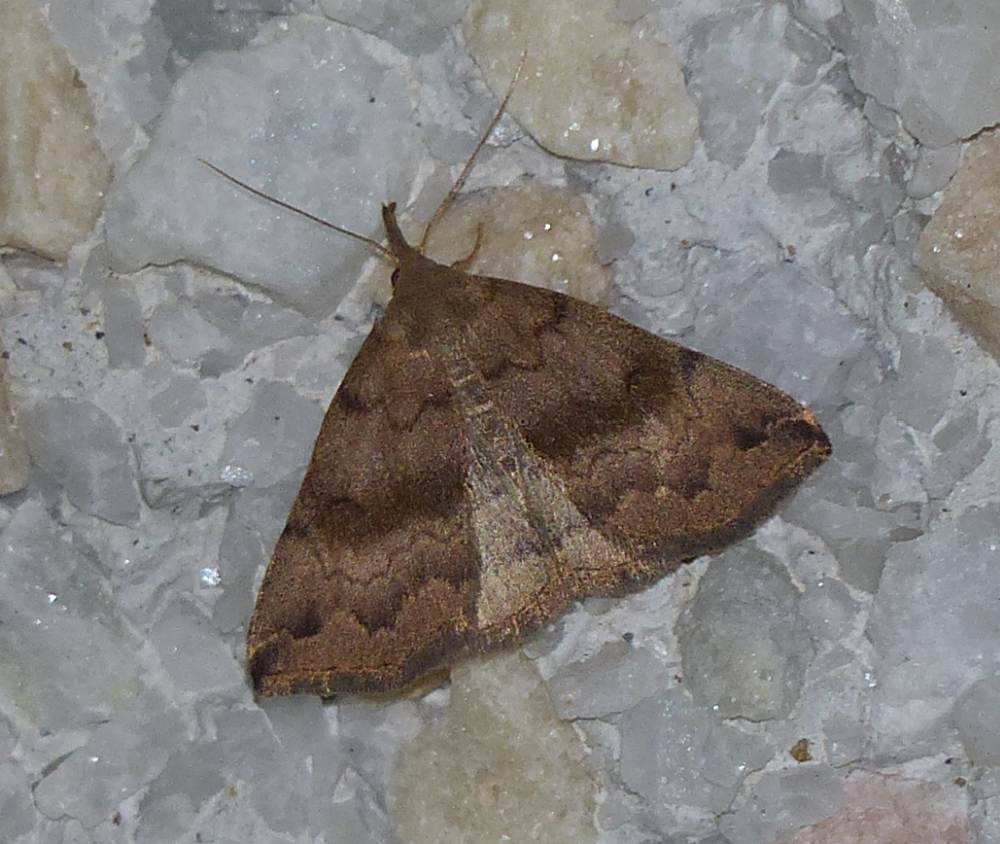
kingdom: Animalia
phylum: Arthropoda
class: Insecta
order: Lepidoptera
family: Erebidae
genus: Phalaenostola
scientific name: Phalaenostola eumelusalis
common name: Dark phalaenostola moth
